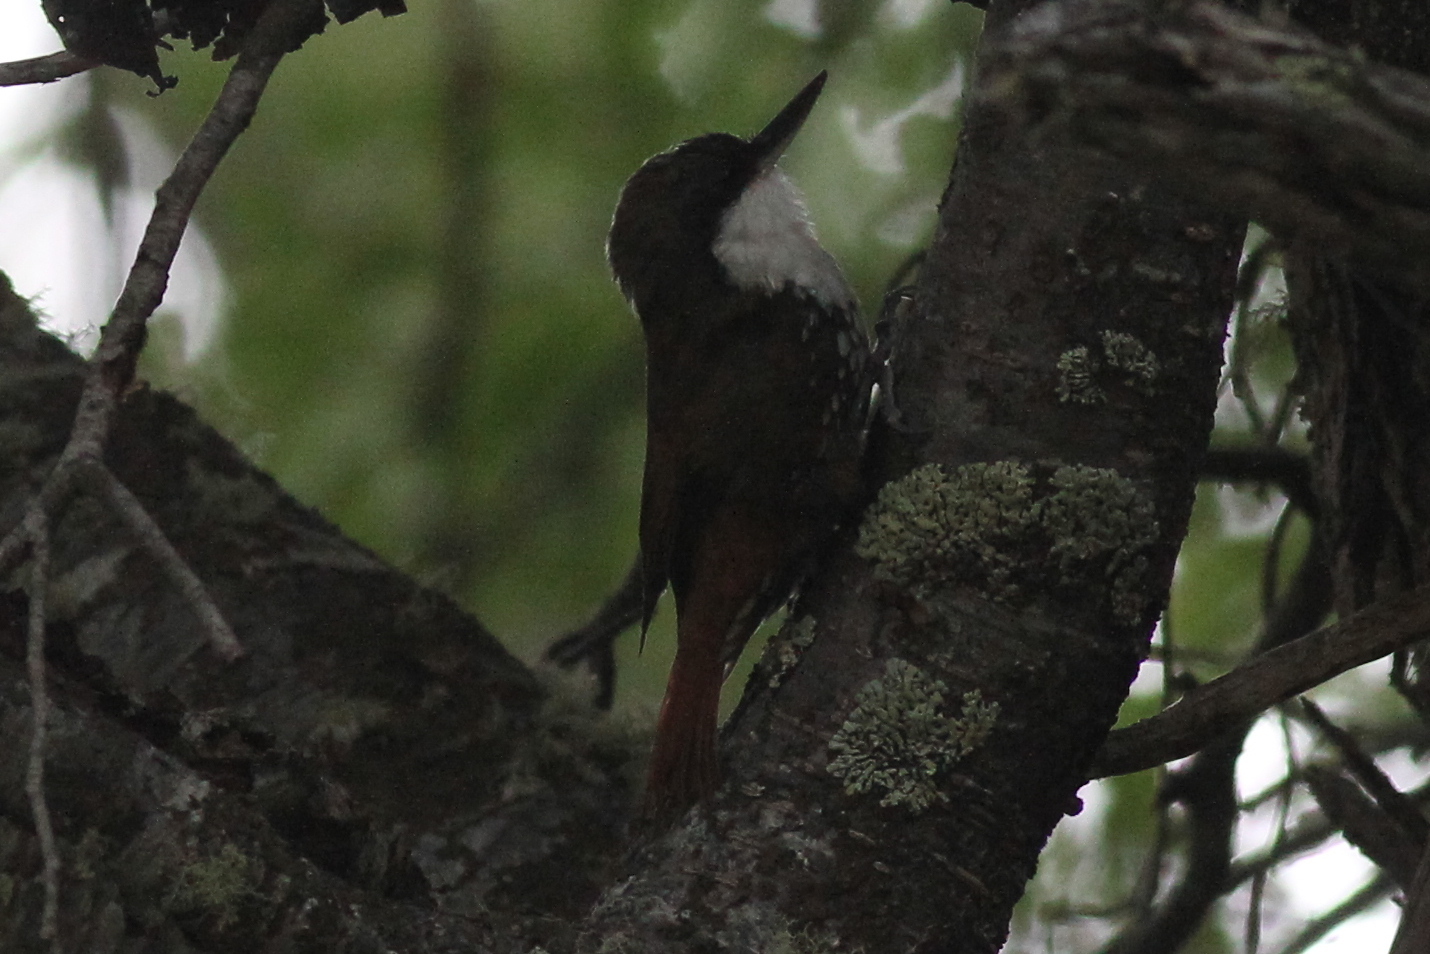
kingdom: Animalia
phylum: Chordata
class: Aves
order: Passeriformes
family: Furnariidae
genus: Pygarrhichas
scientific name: Pygarrhichas albogularis
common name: White-throated treerunner
